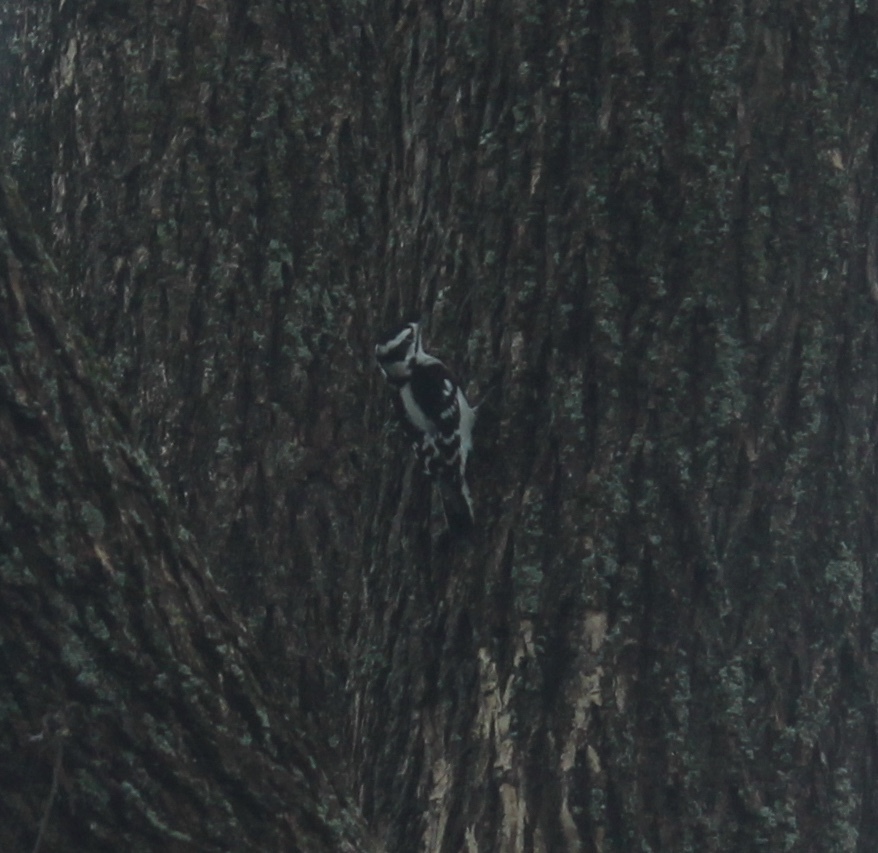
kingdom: Animalia
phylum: Chordata
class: Aves
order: Piciformes
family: Picidae
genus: Dryobates
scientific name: Dryobates pubescens
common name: Downy woodpecker
